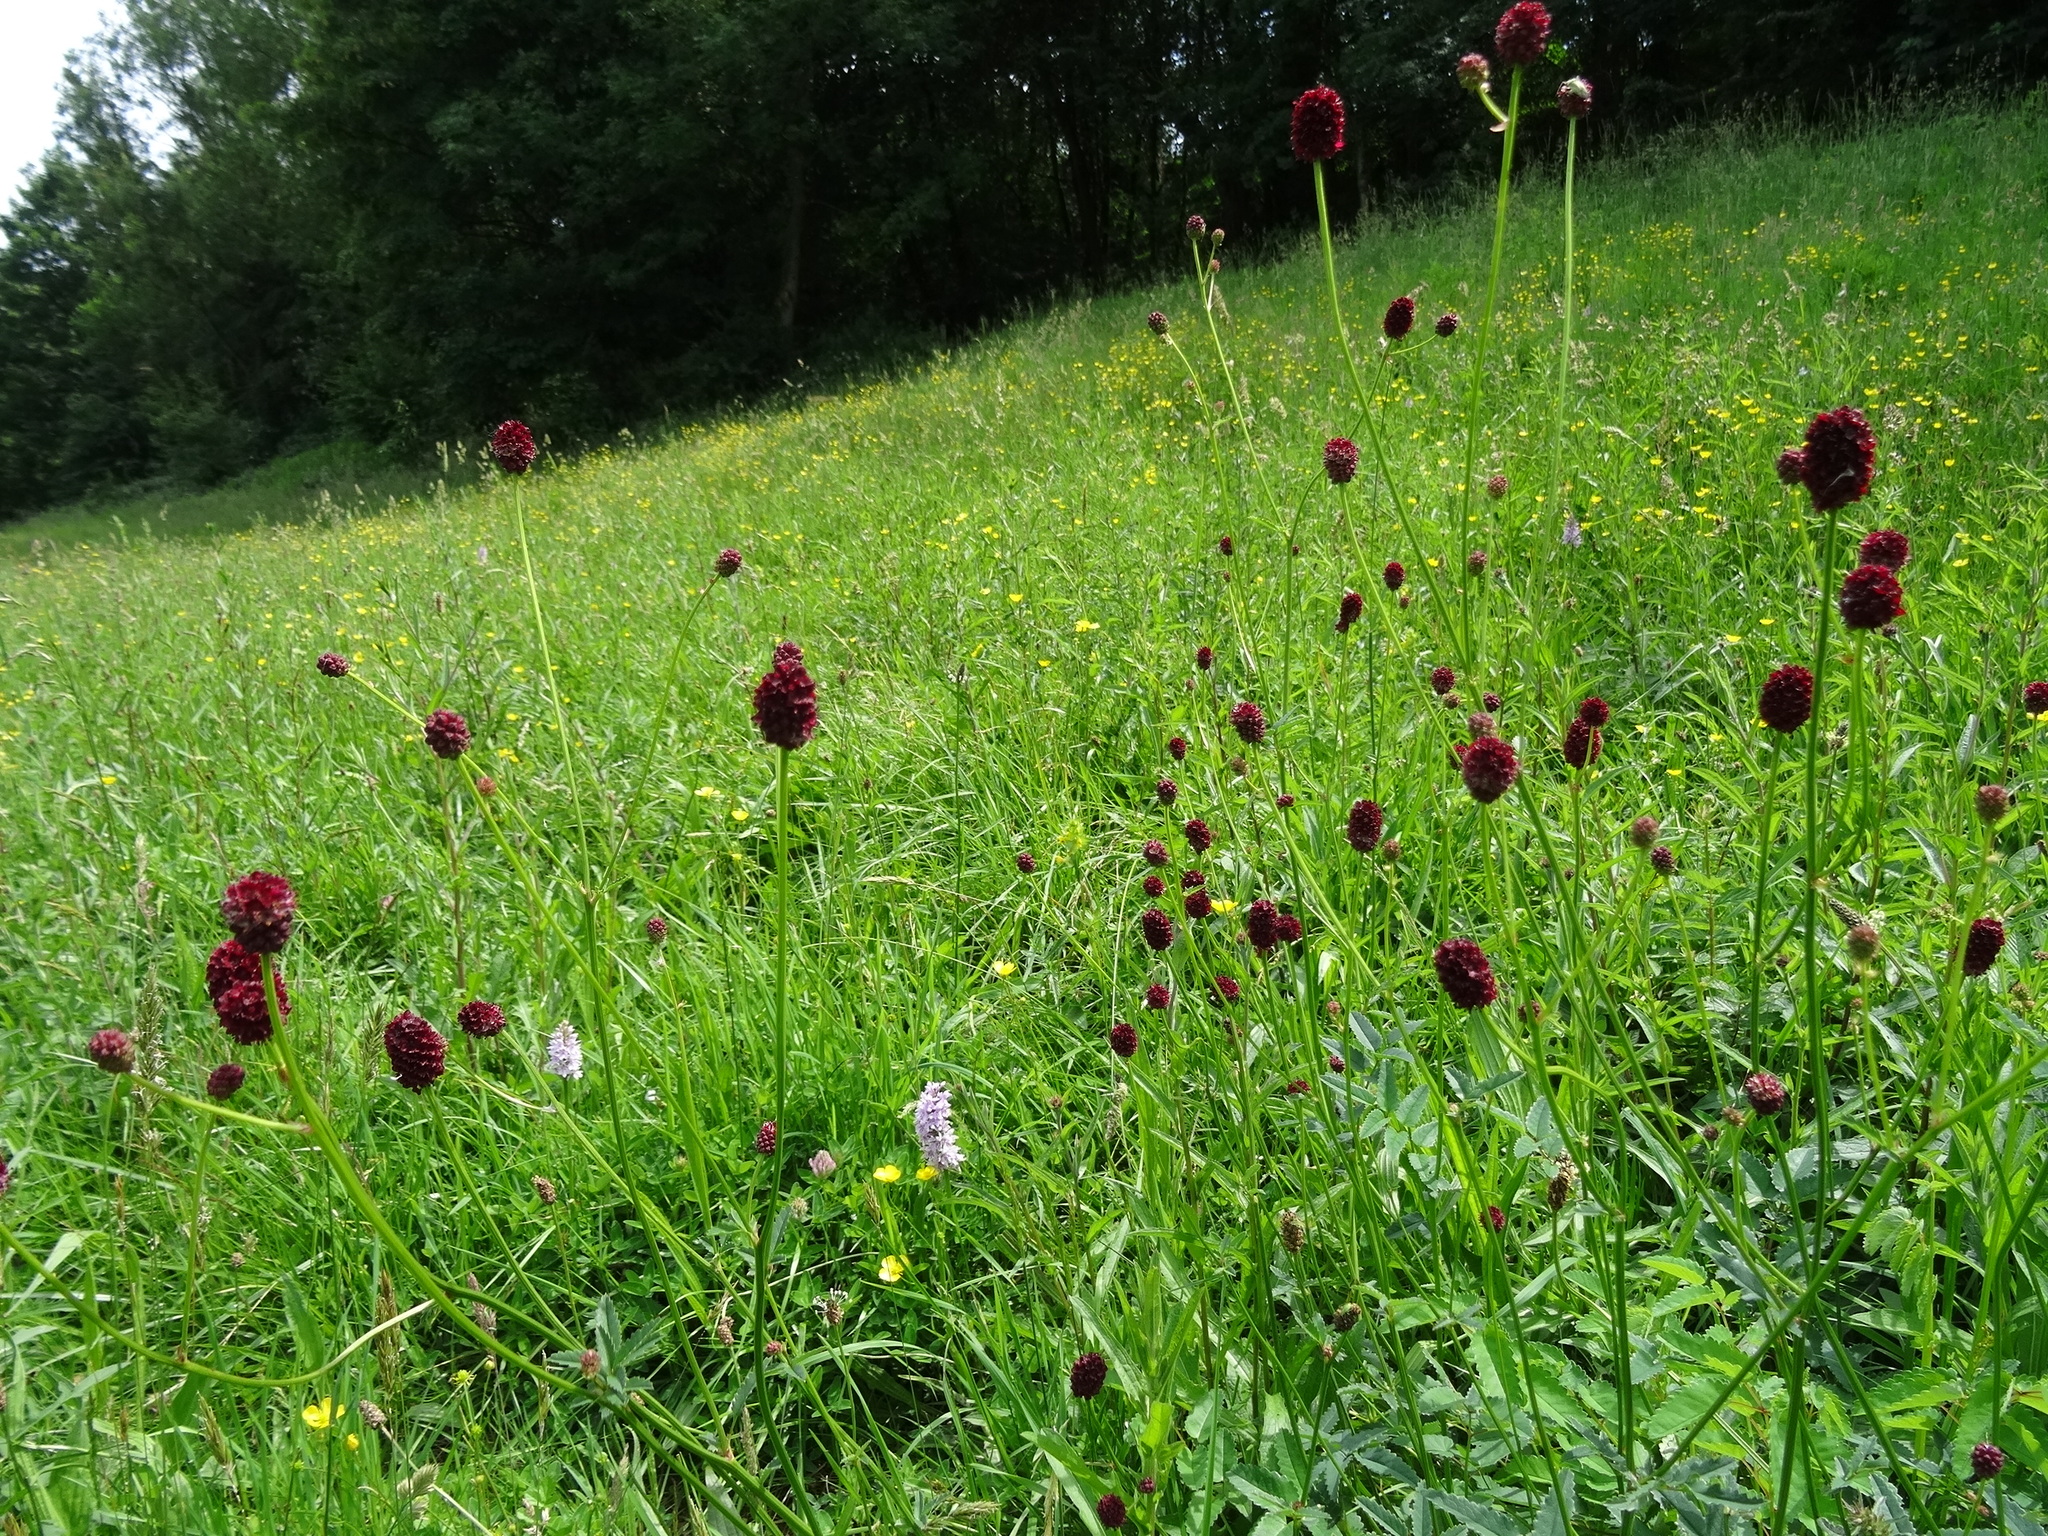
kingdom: Plantae
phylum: Tracheophyta
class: Magnoliopsida
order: Rosales
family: Rosaceae
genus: Sanguisorba
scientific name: Sanguisorba officinalis
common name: Great burnet
